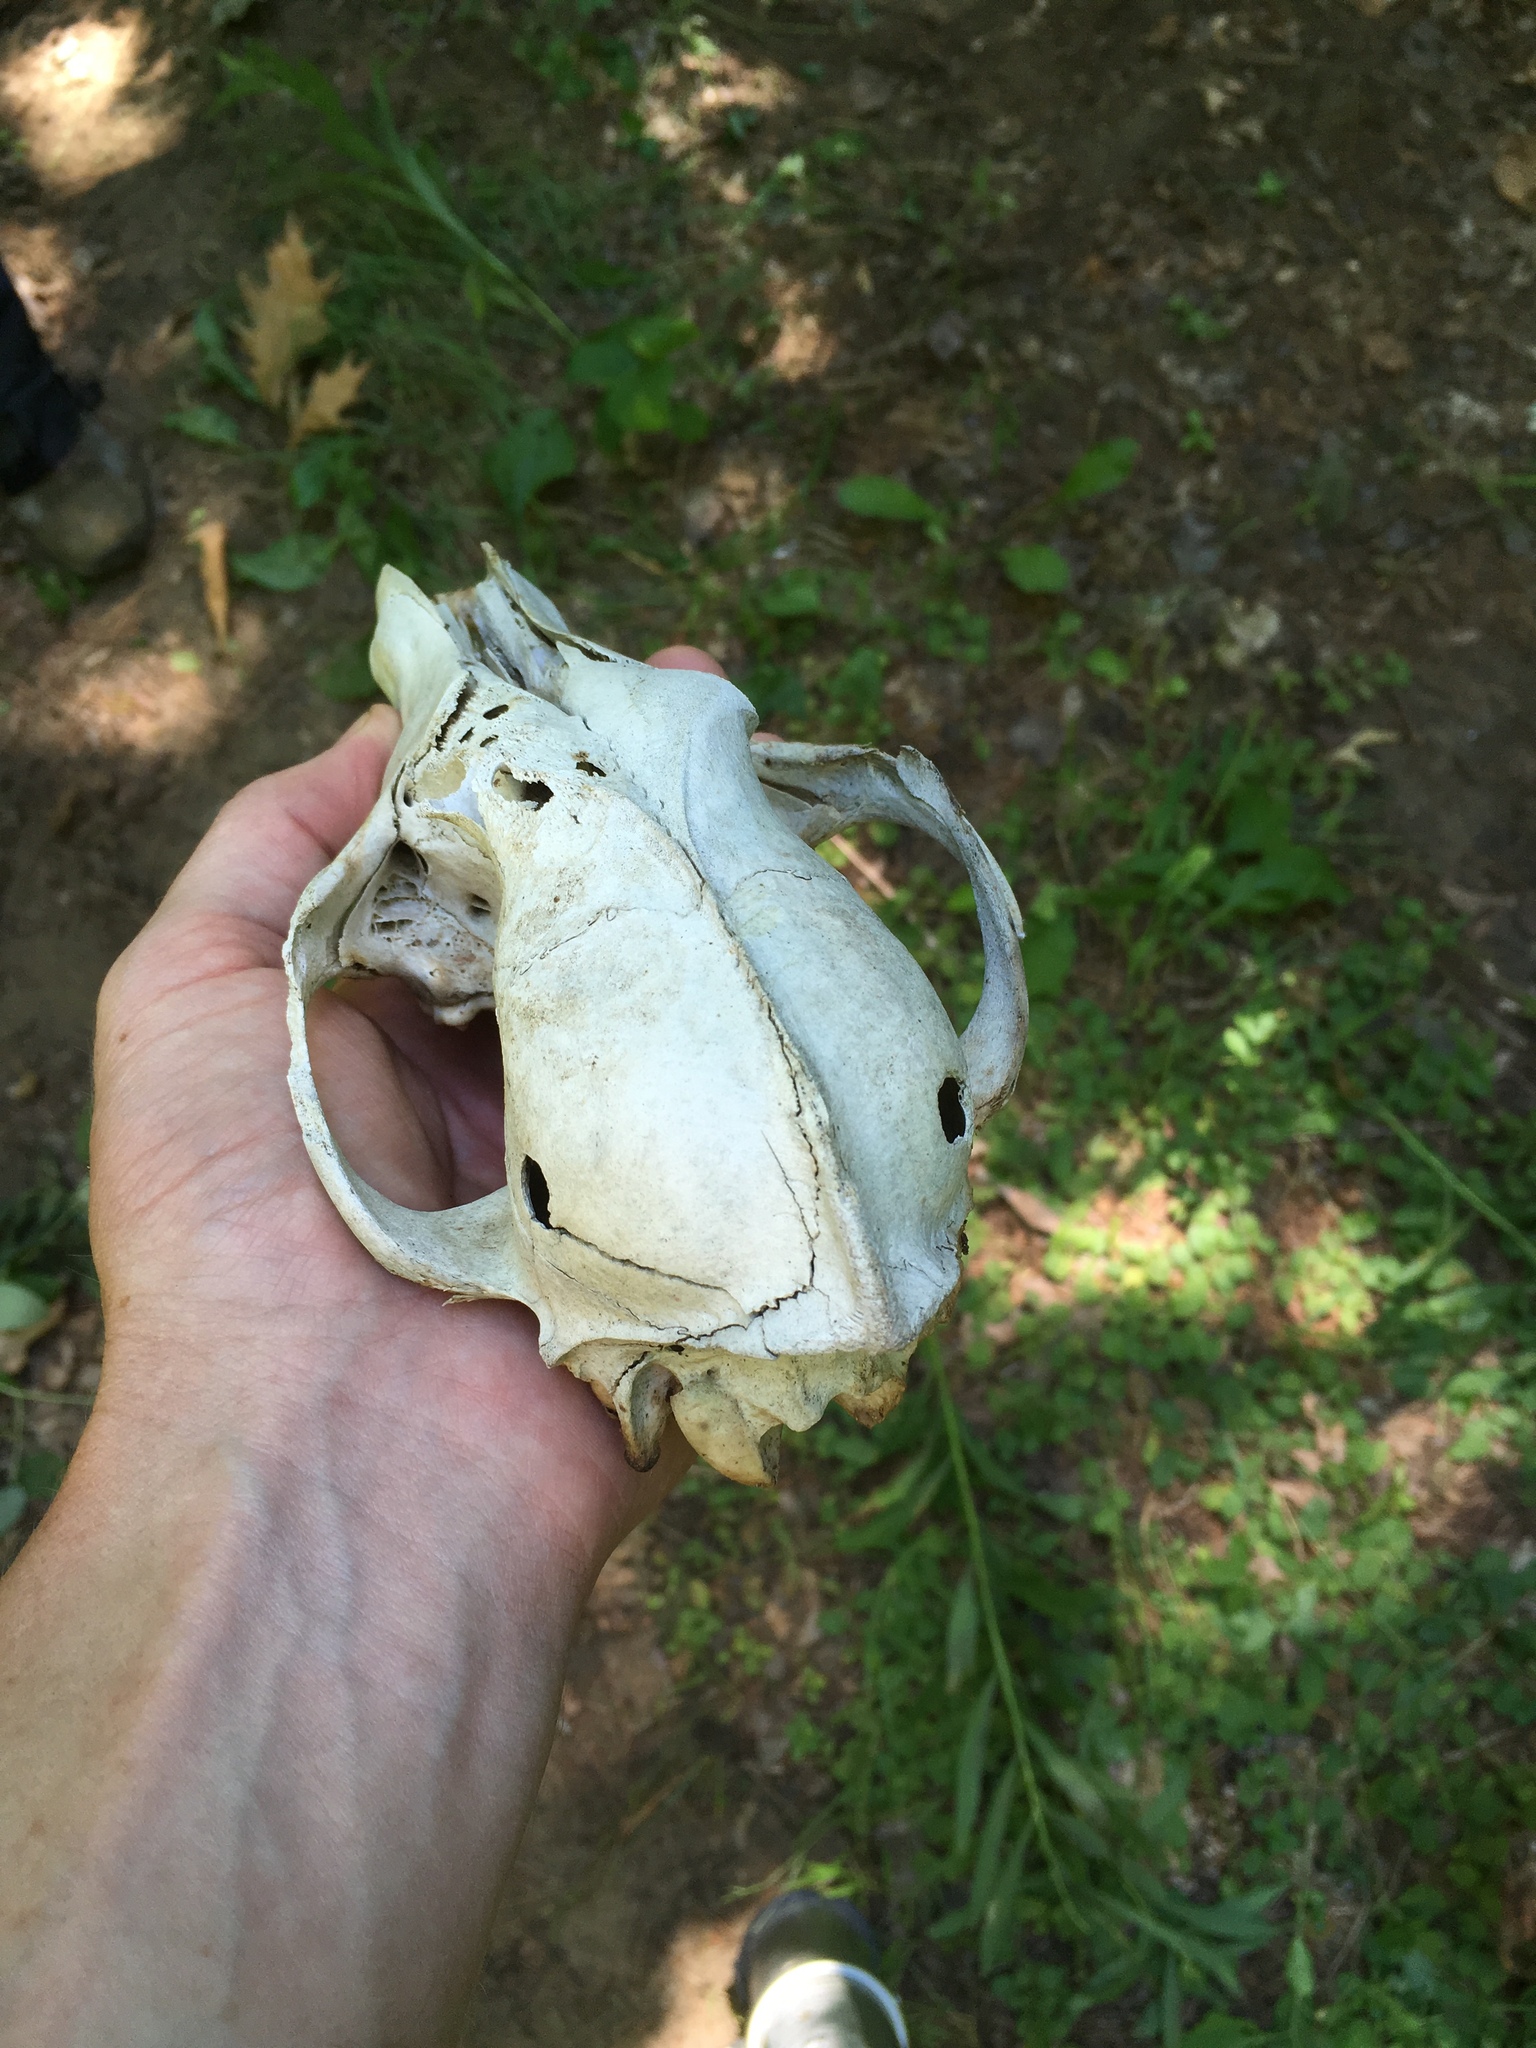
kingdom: Animalia
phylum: Chordata
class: Mammalia
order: Carnivora
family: Canidae
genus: Canis
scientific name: Canis latrans
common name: Coyote
